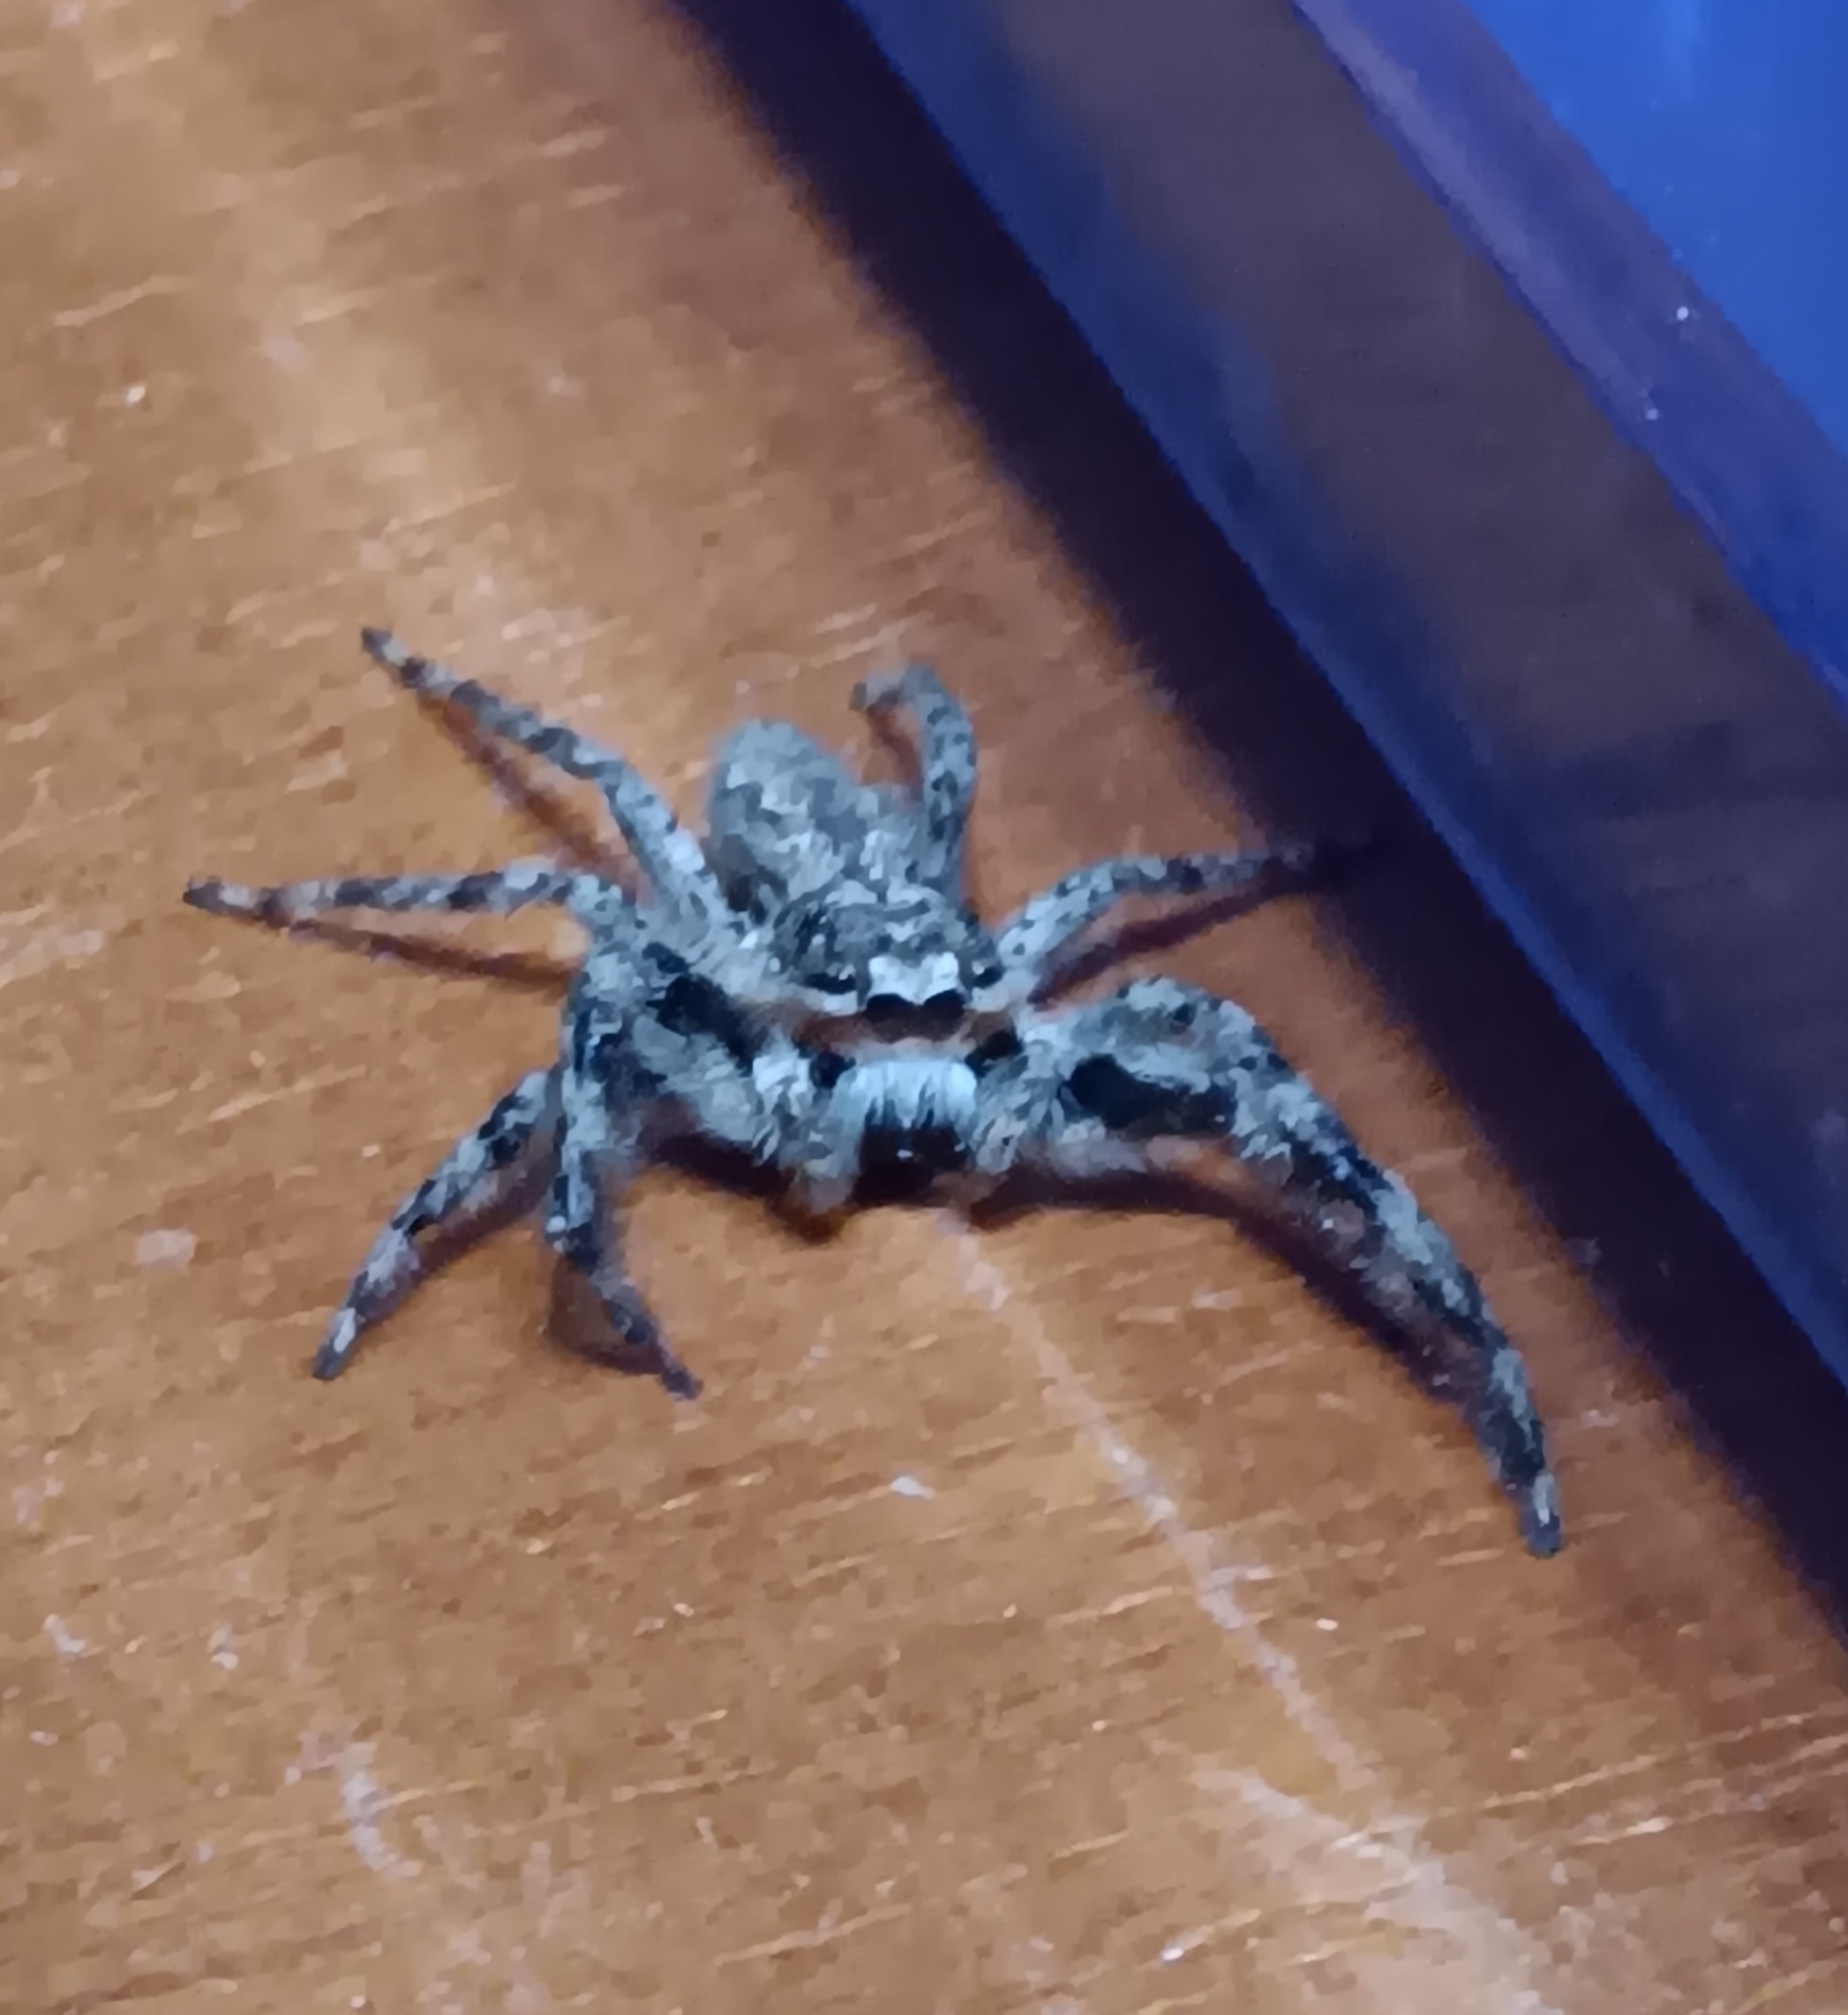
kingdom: Animalia
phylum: Arthropoda
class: Arachnida
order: Araneae
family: Salticidae
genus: Platycryptus
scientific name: Platycryptus undatus
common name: Tan jumping spider
